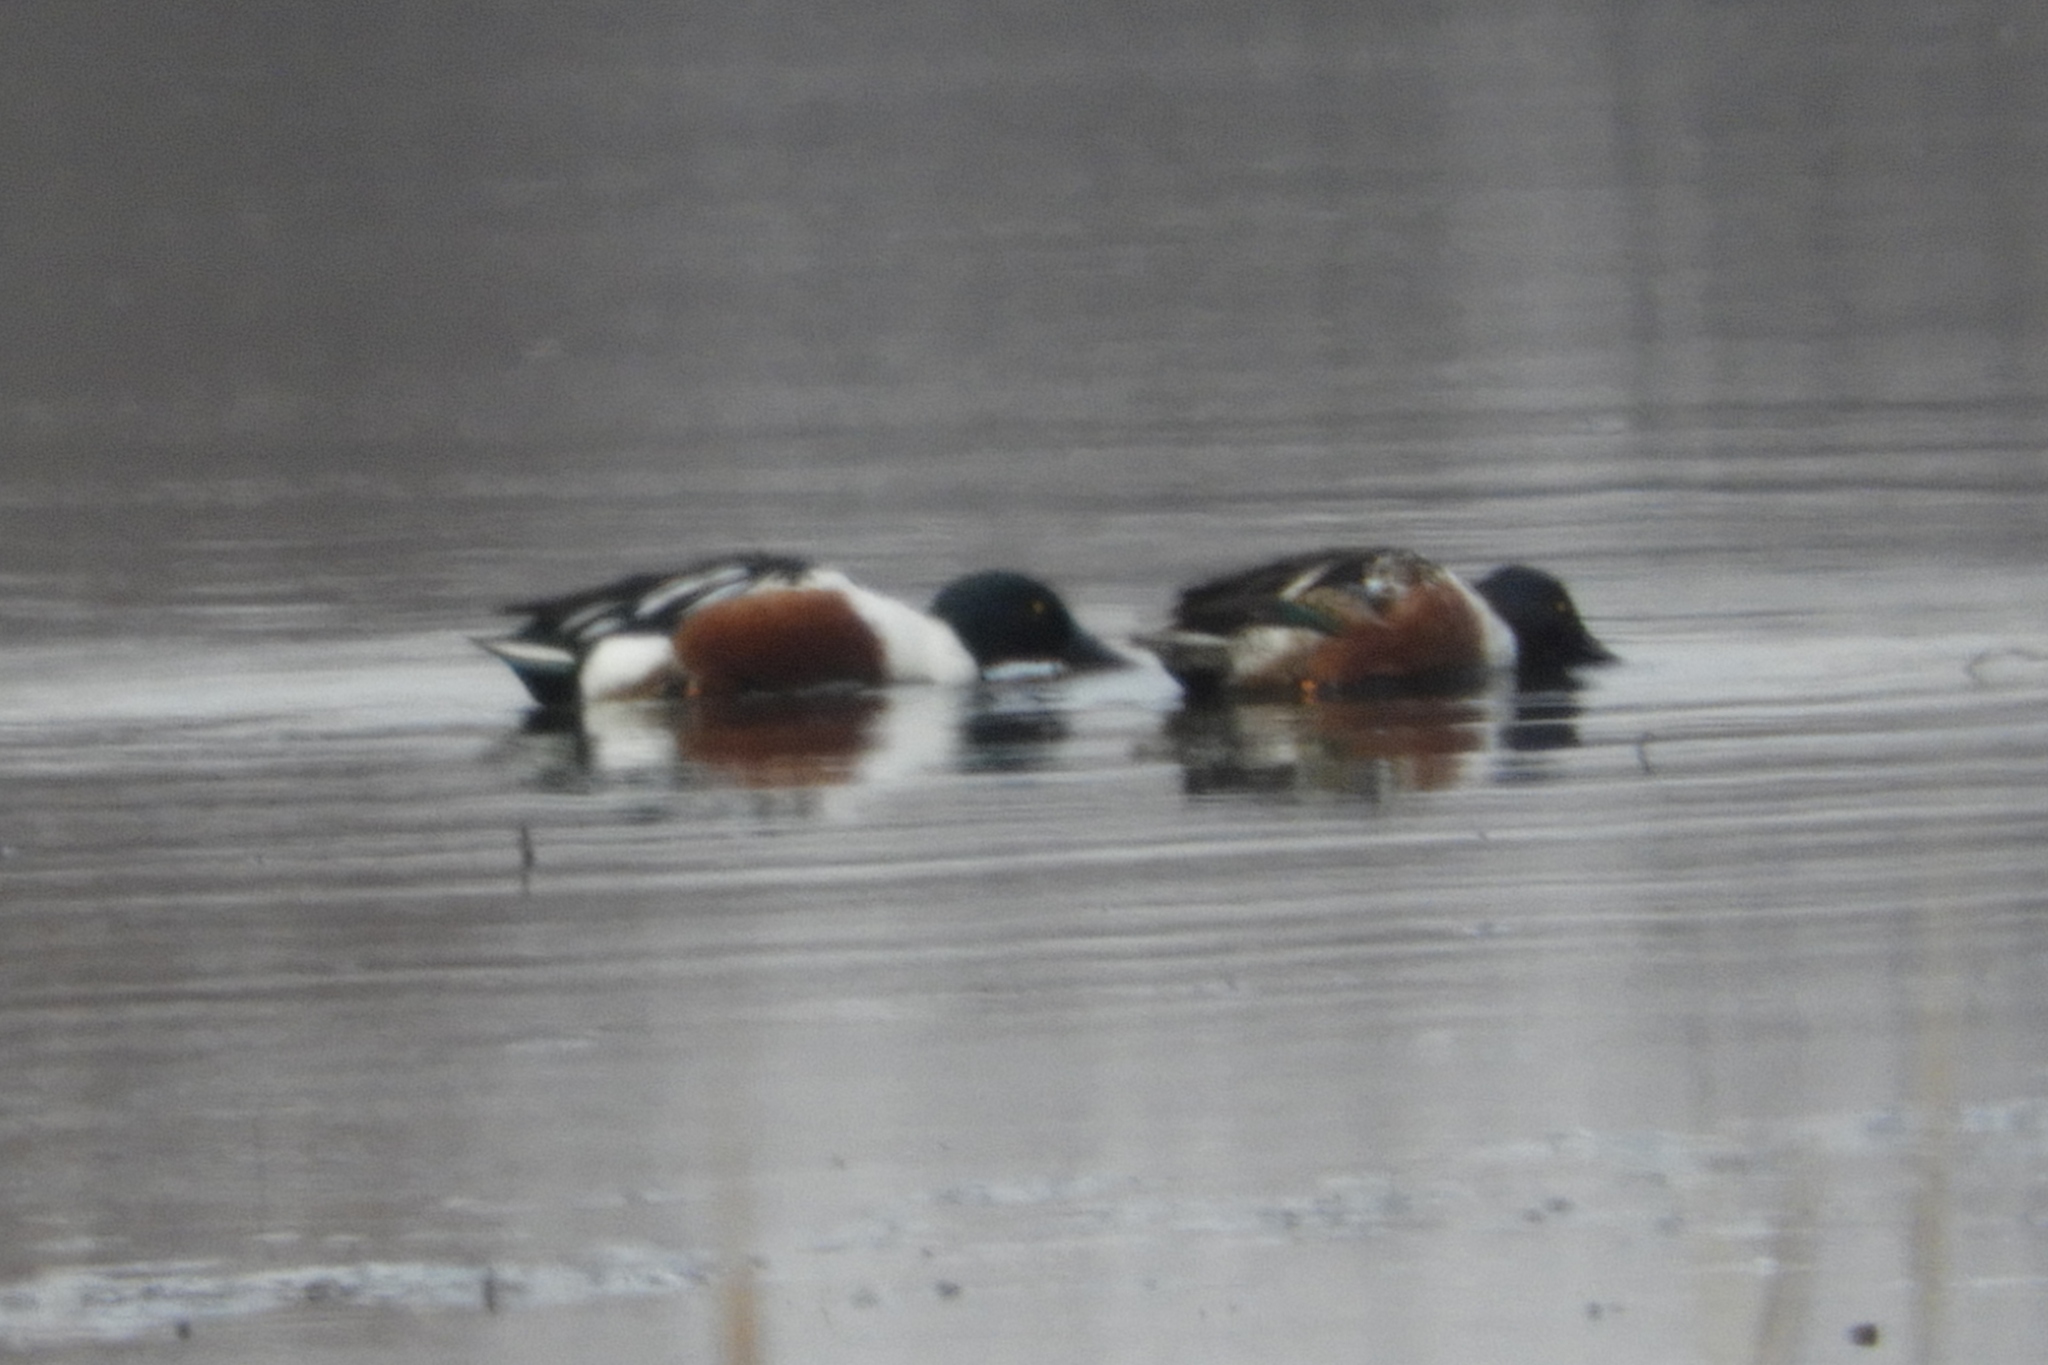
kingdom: Animalia
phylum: Chordata
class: Aves
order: Anseriformes
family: Anatidae
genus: Spatula
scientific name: Spatula clypeata
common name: Northern shoveler
